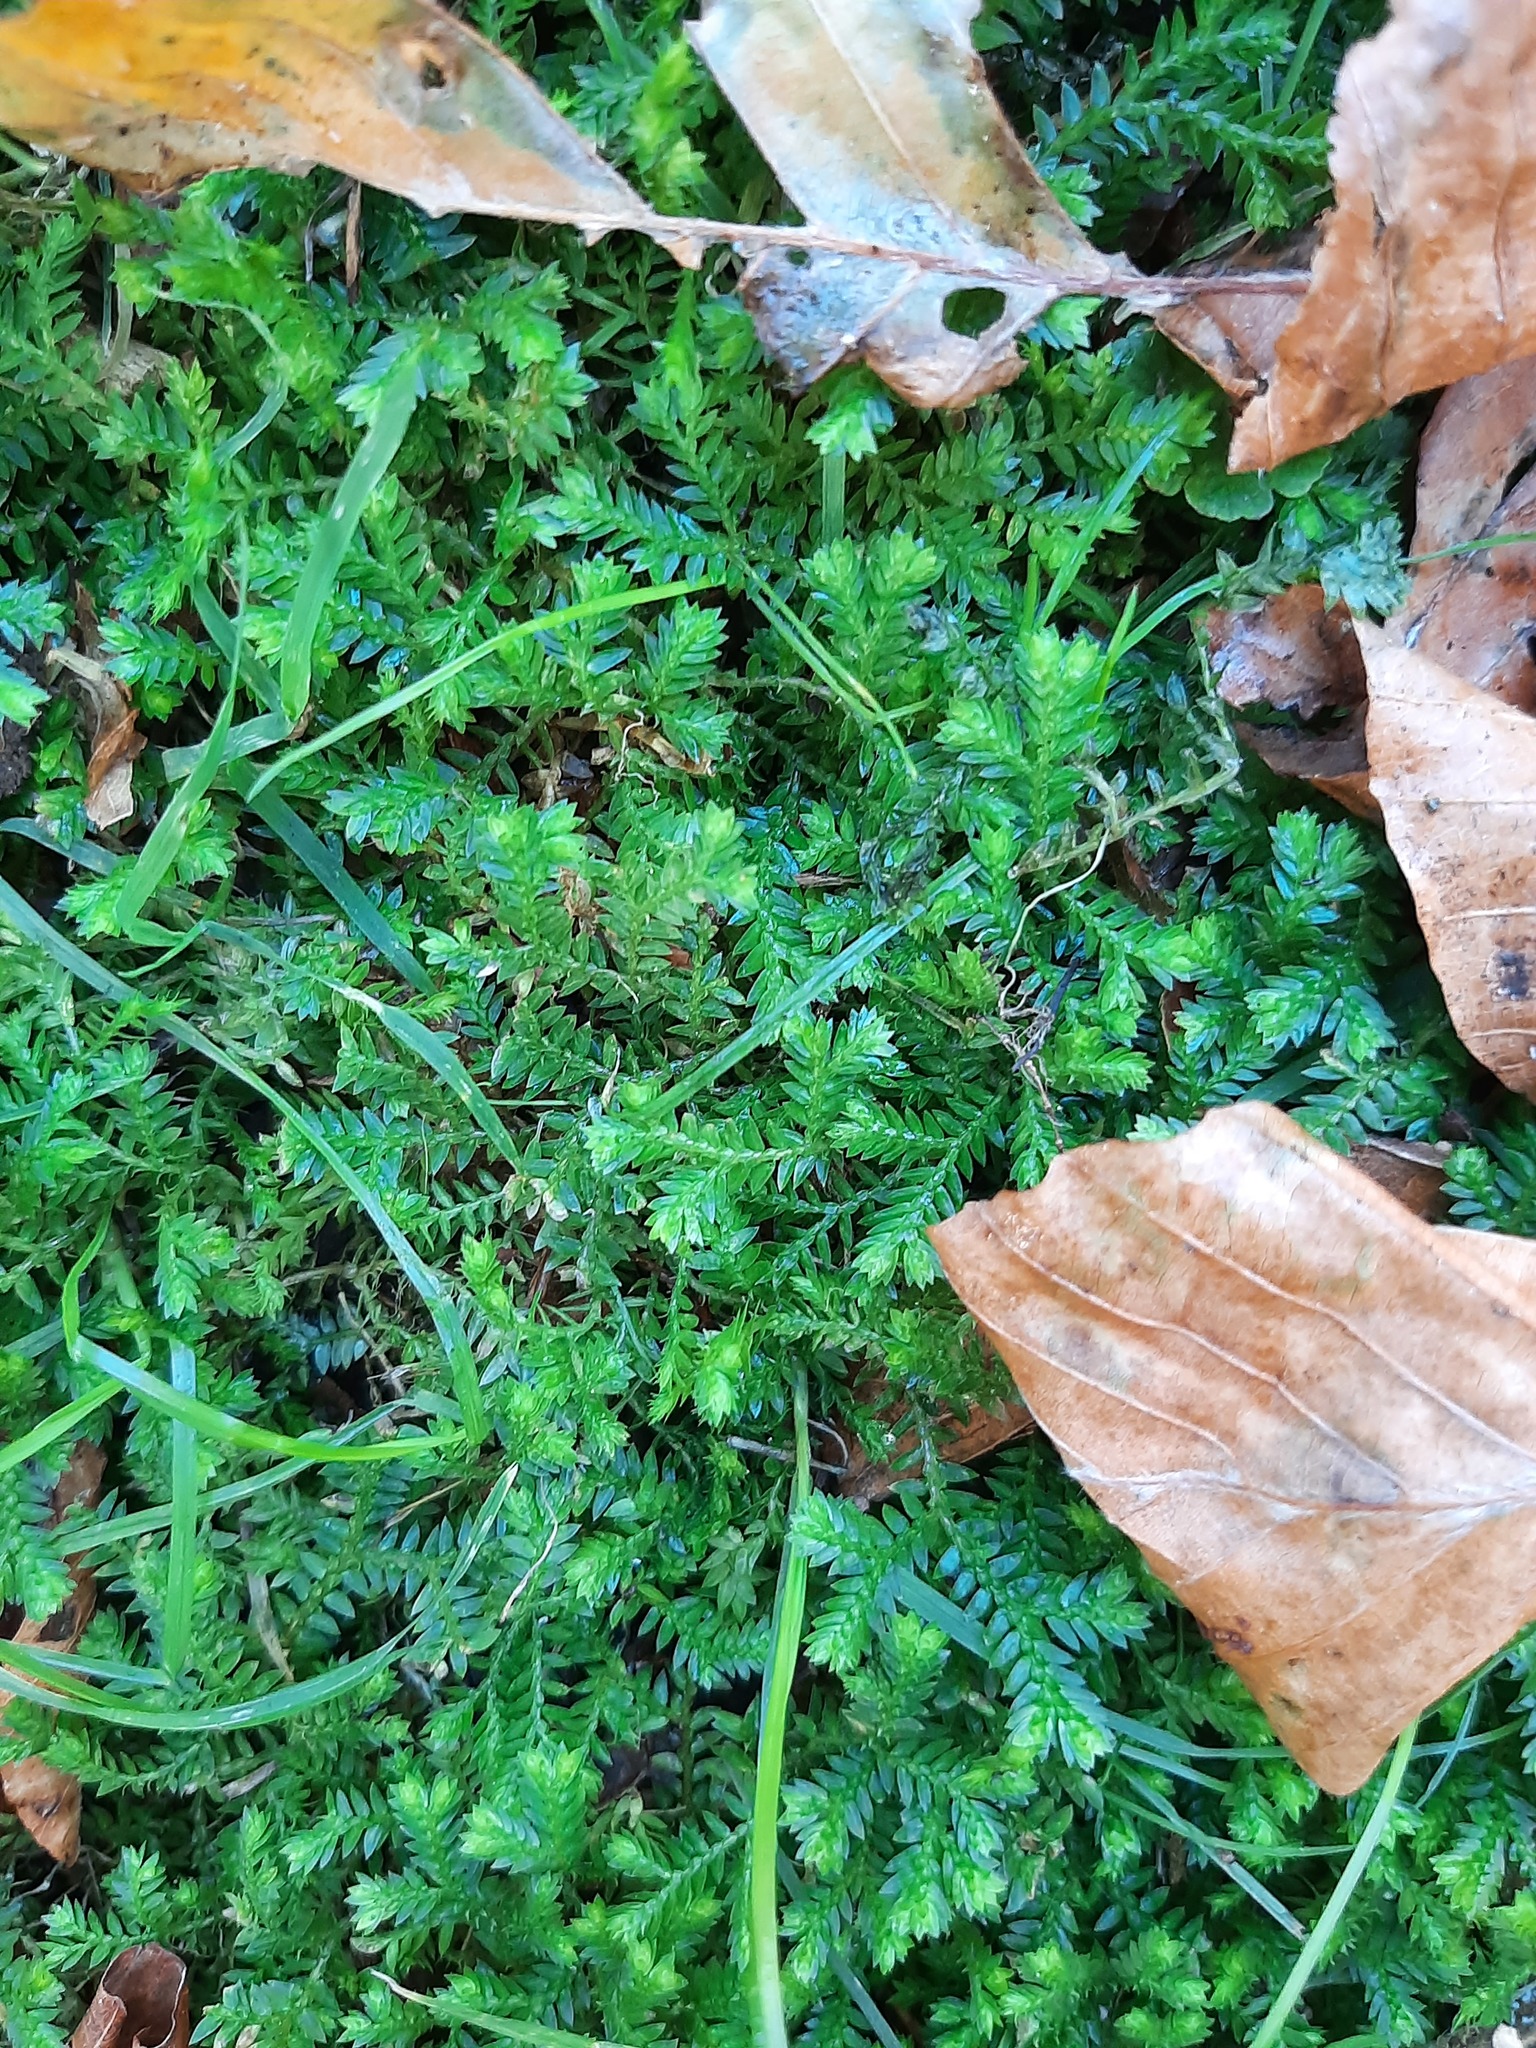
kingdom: Plantae
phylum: Tracheophyta
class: Lycopodiopsida
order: Selaginellales
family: Selaginellaceae
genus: Selaginella
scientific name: Selaginella kraussiana
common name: Krauss' spikemoss
